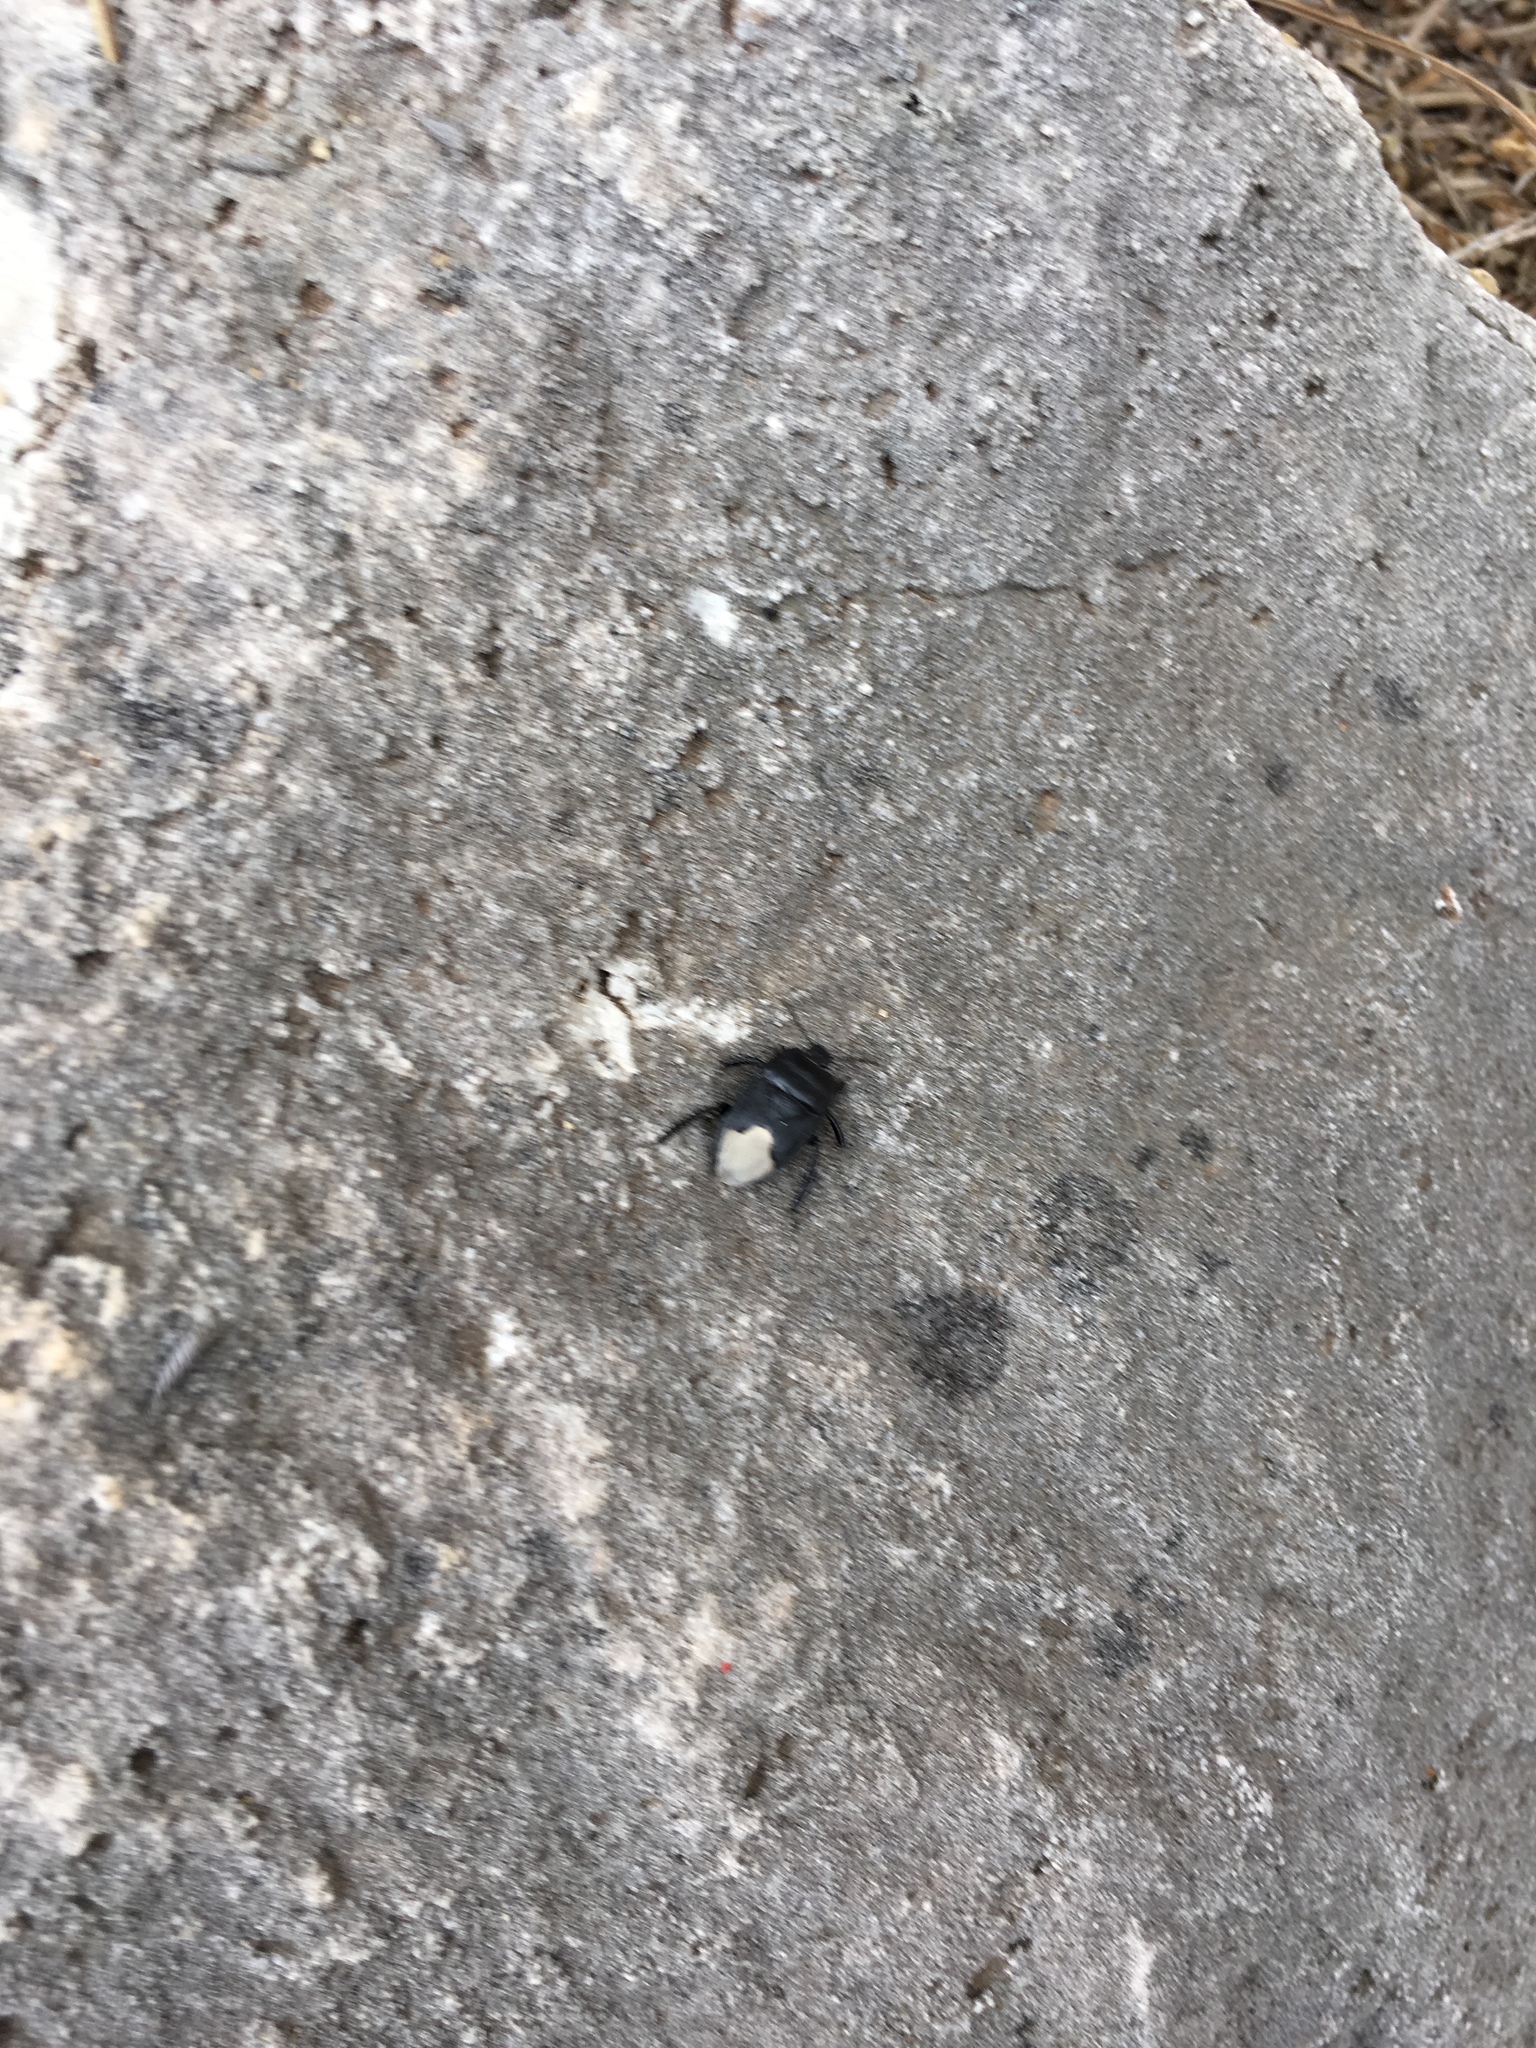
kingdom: Animalia
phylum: Arthropoda
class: Insecta
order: Hemiptera
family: Cydnidae
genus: Cydnus
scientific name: Cydnus aterrimus
